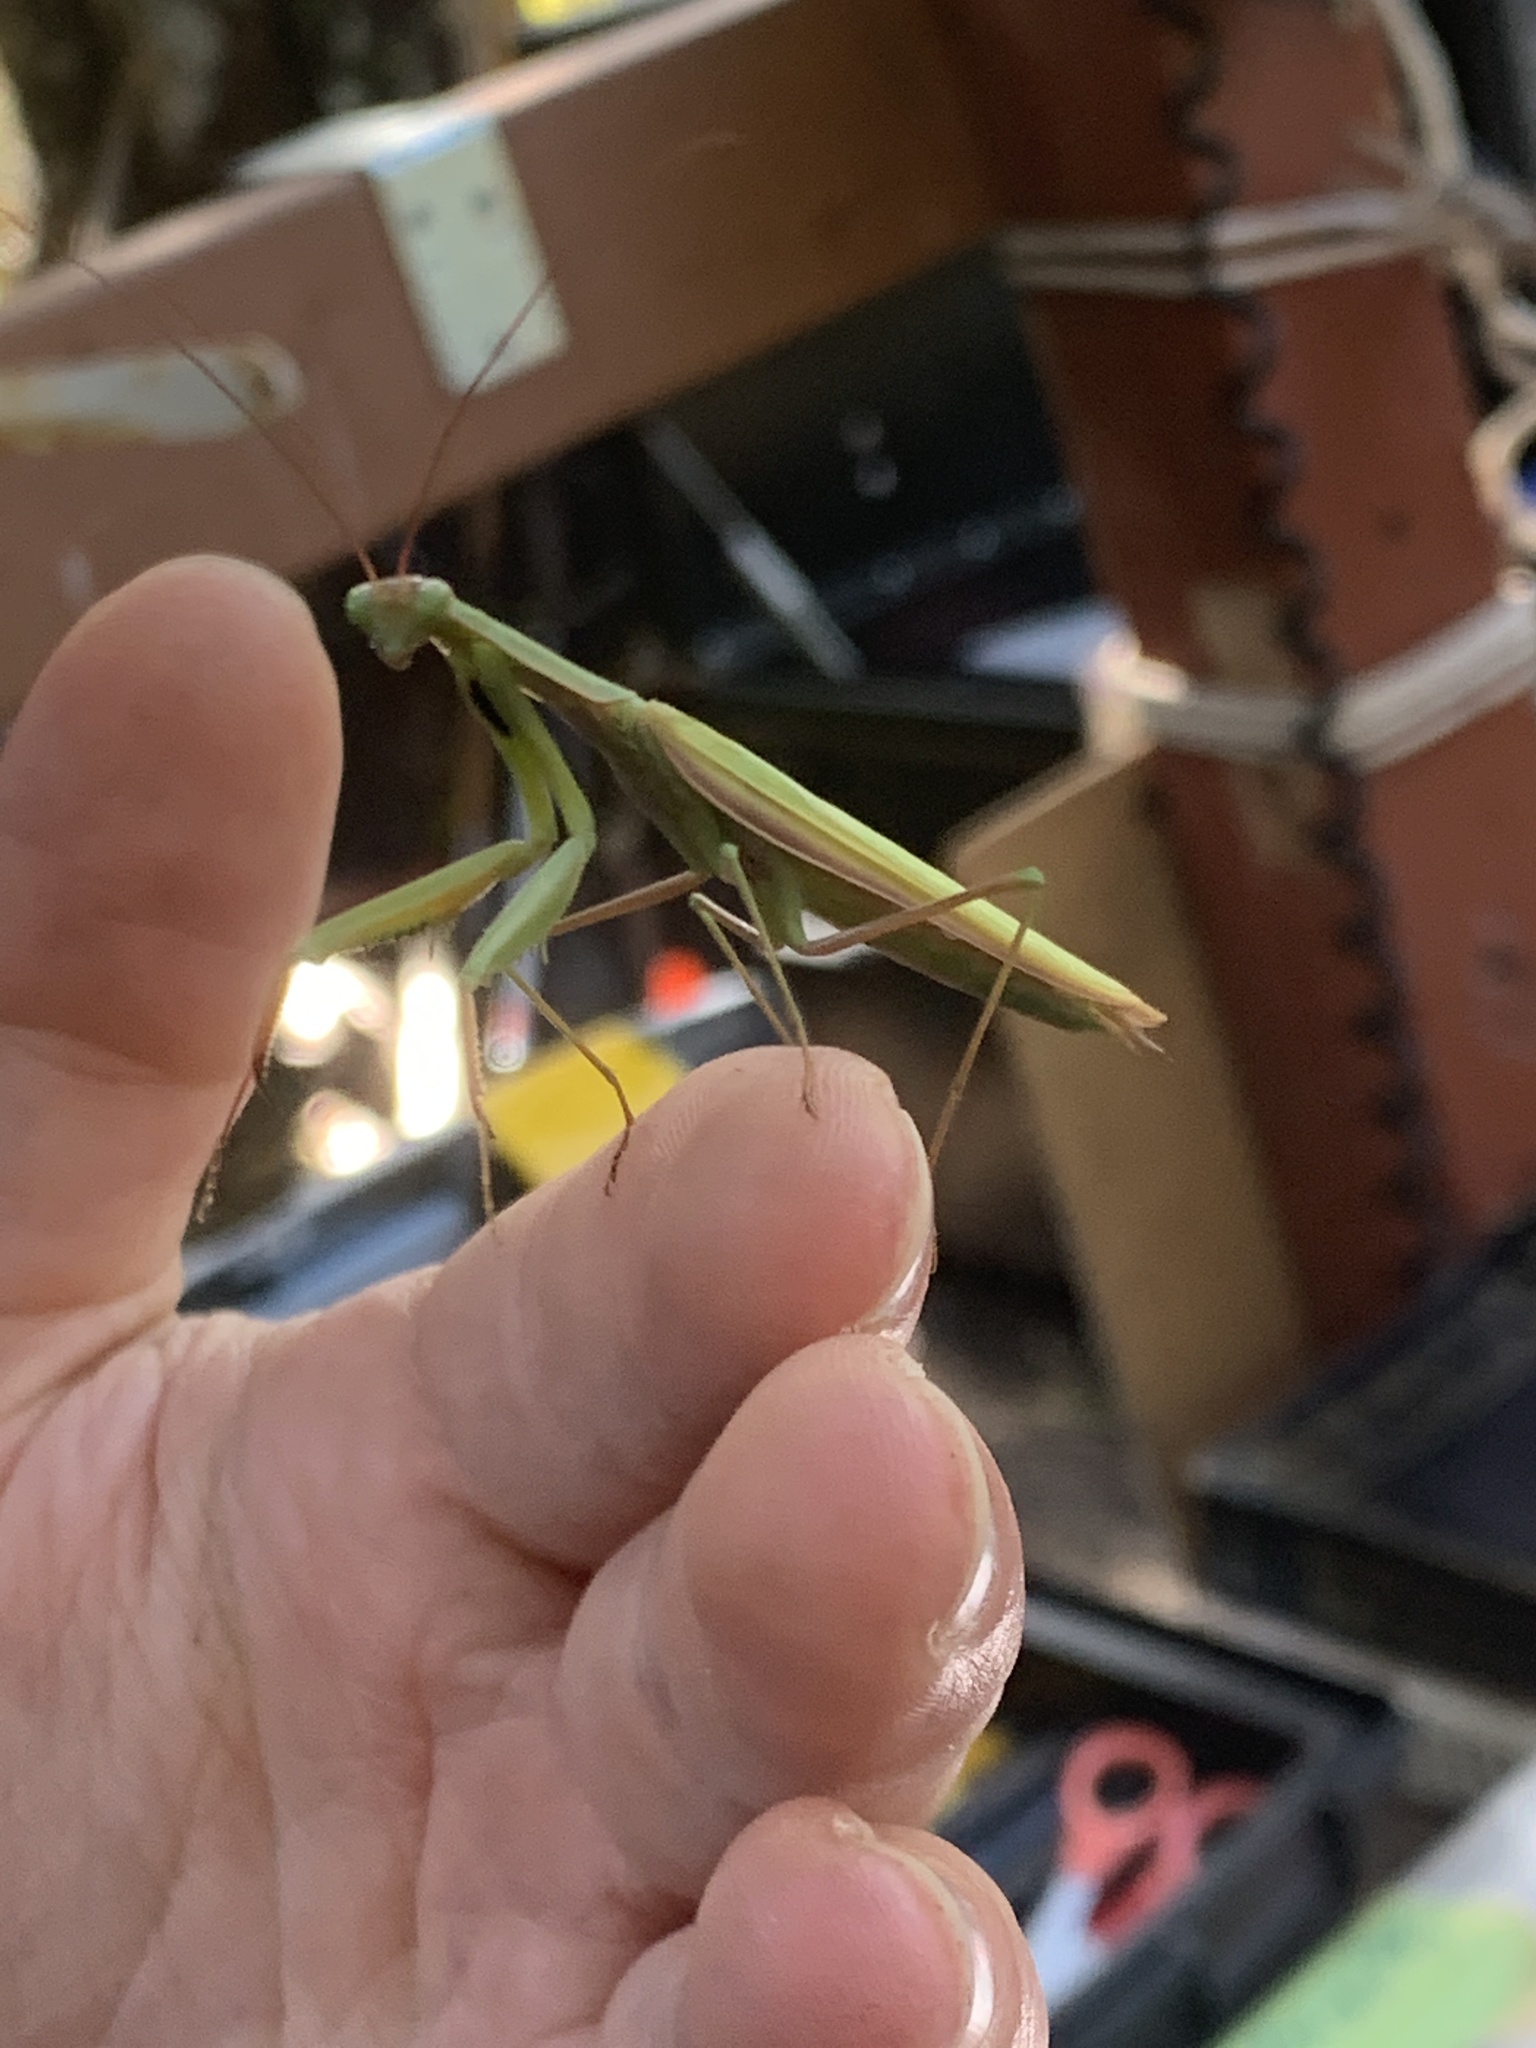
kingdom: Animalia
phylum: Arthropoda
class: Insecta
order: Mantodea
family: Mantidae
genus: Mantis
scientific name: Mantis religiosa
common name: Praying mantis
